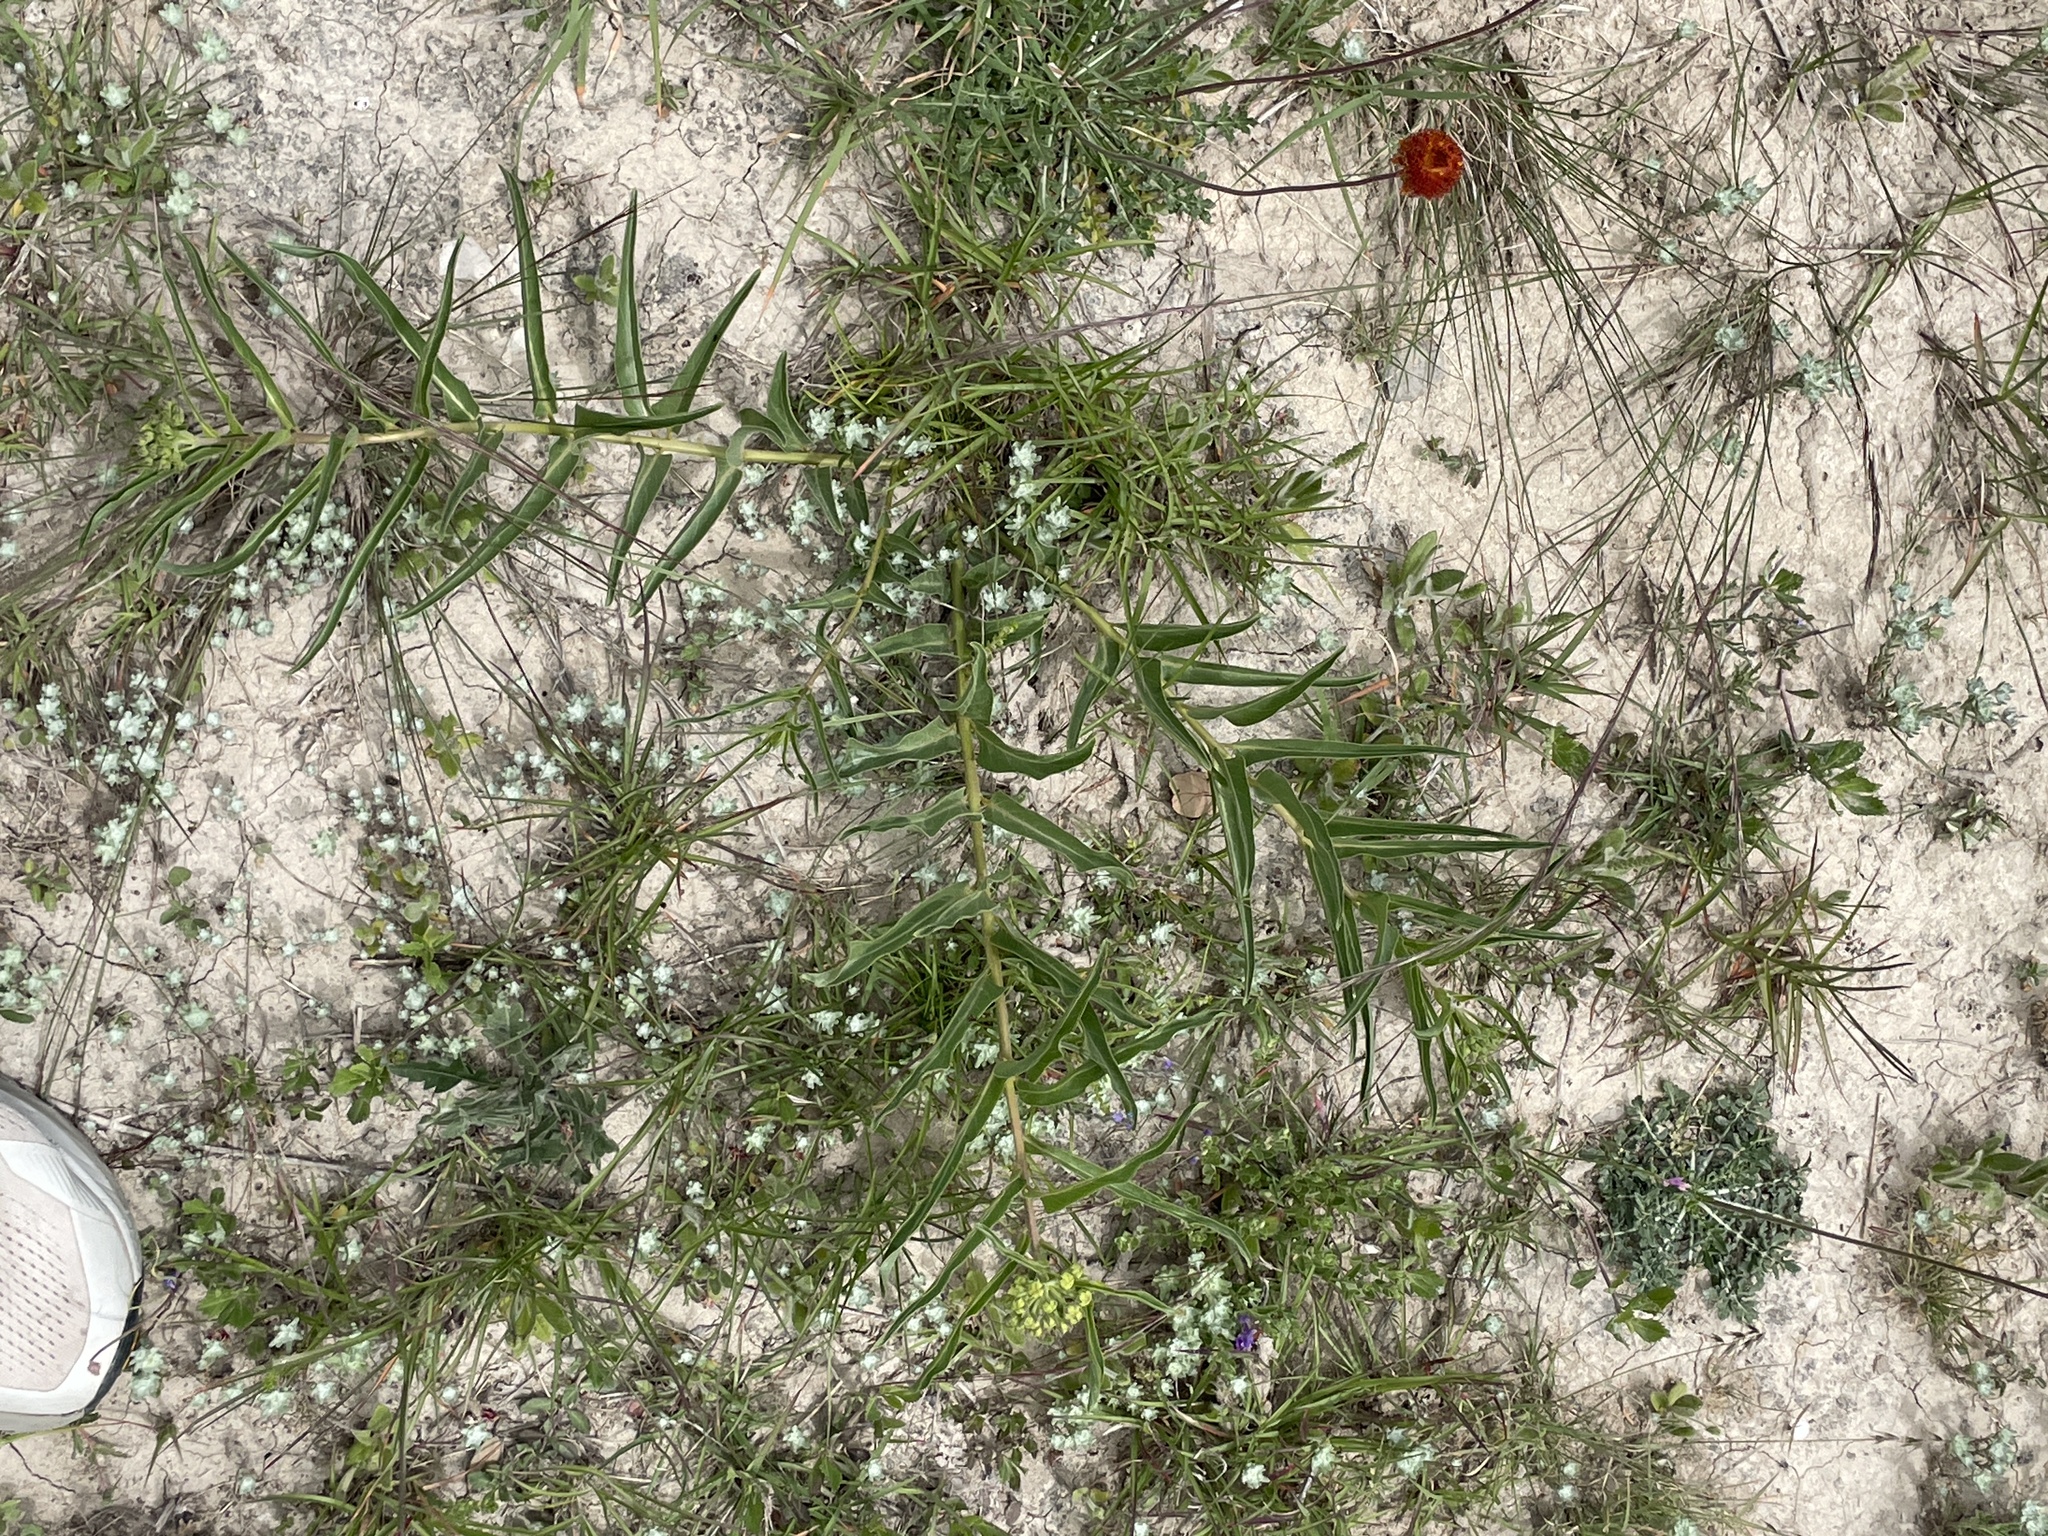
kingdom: Plantae
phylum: Tracheophyta
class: Magnoliopsida
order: Gentianales
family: Apocynaceae
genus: Asclepias
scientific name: Asclepias asperula
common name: Antelope horns
